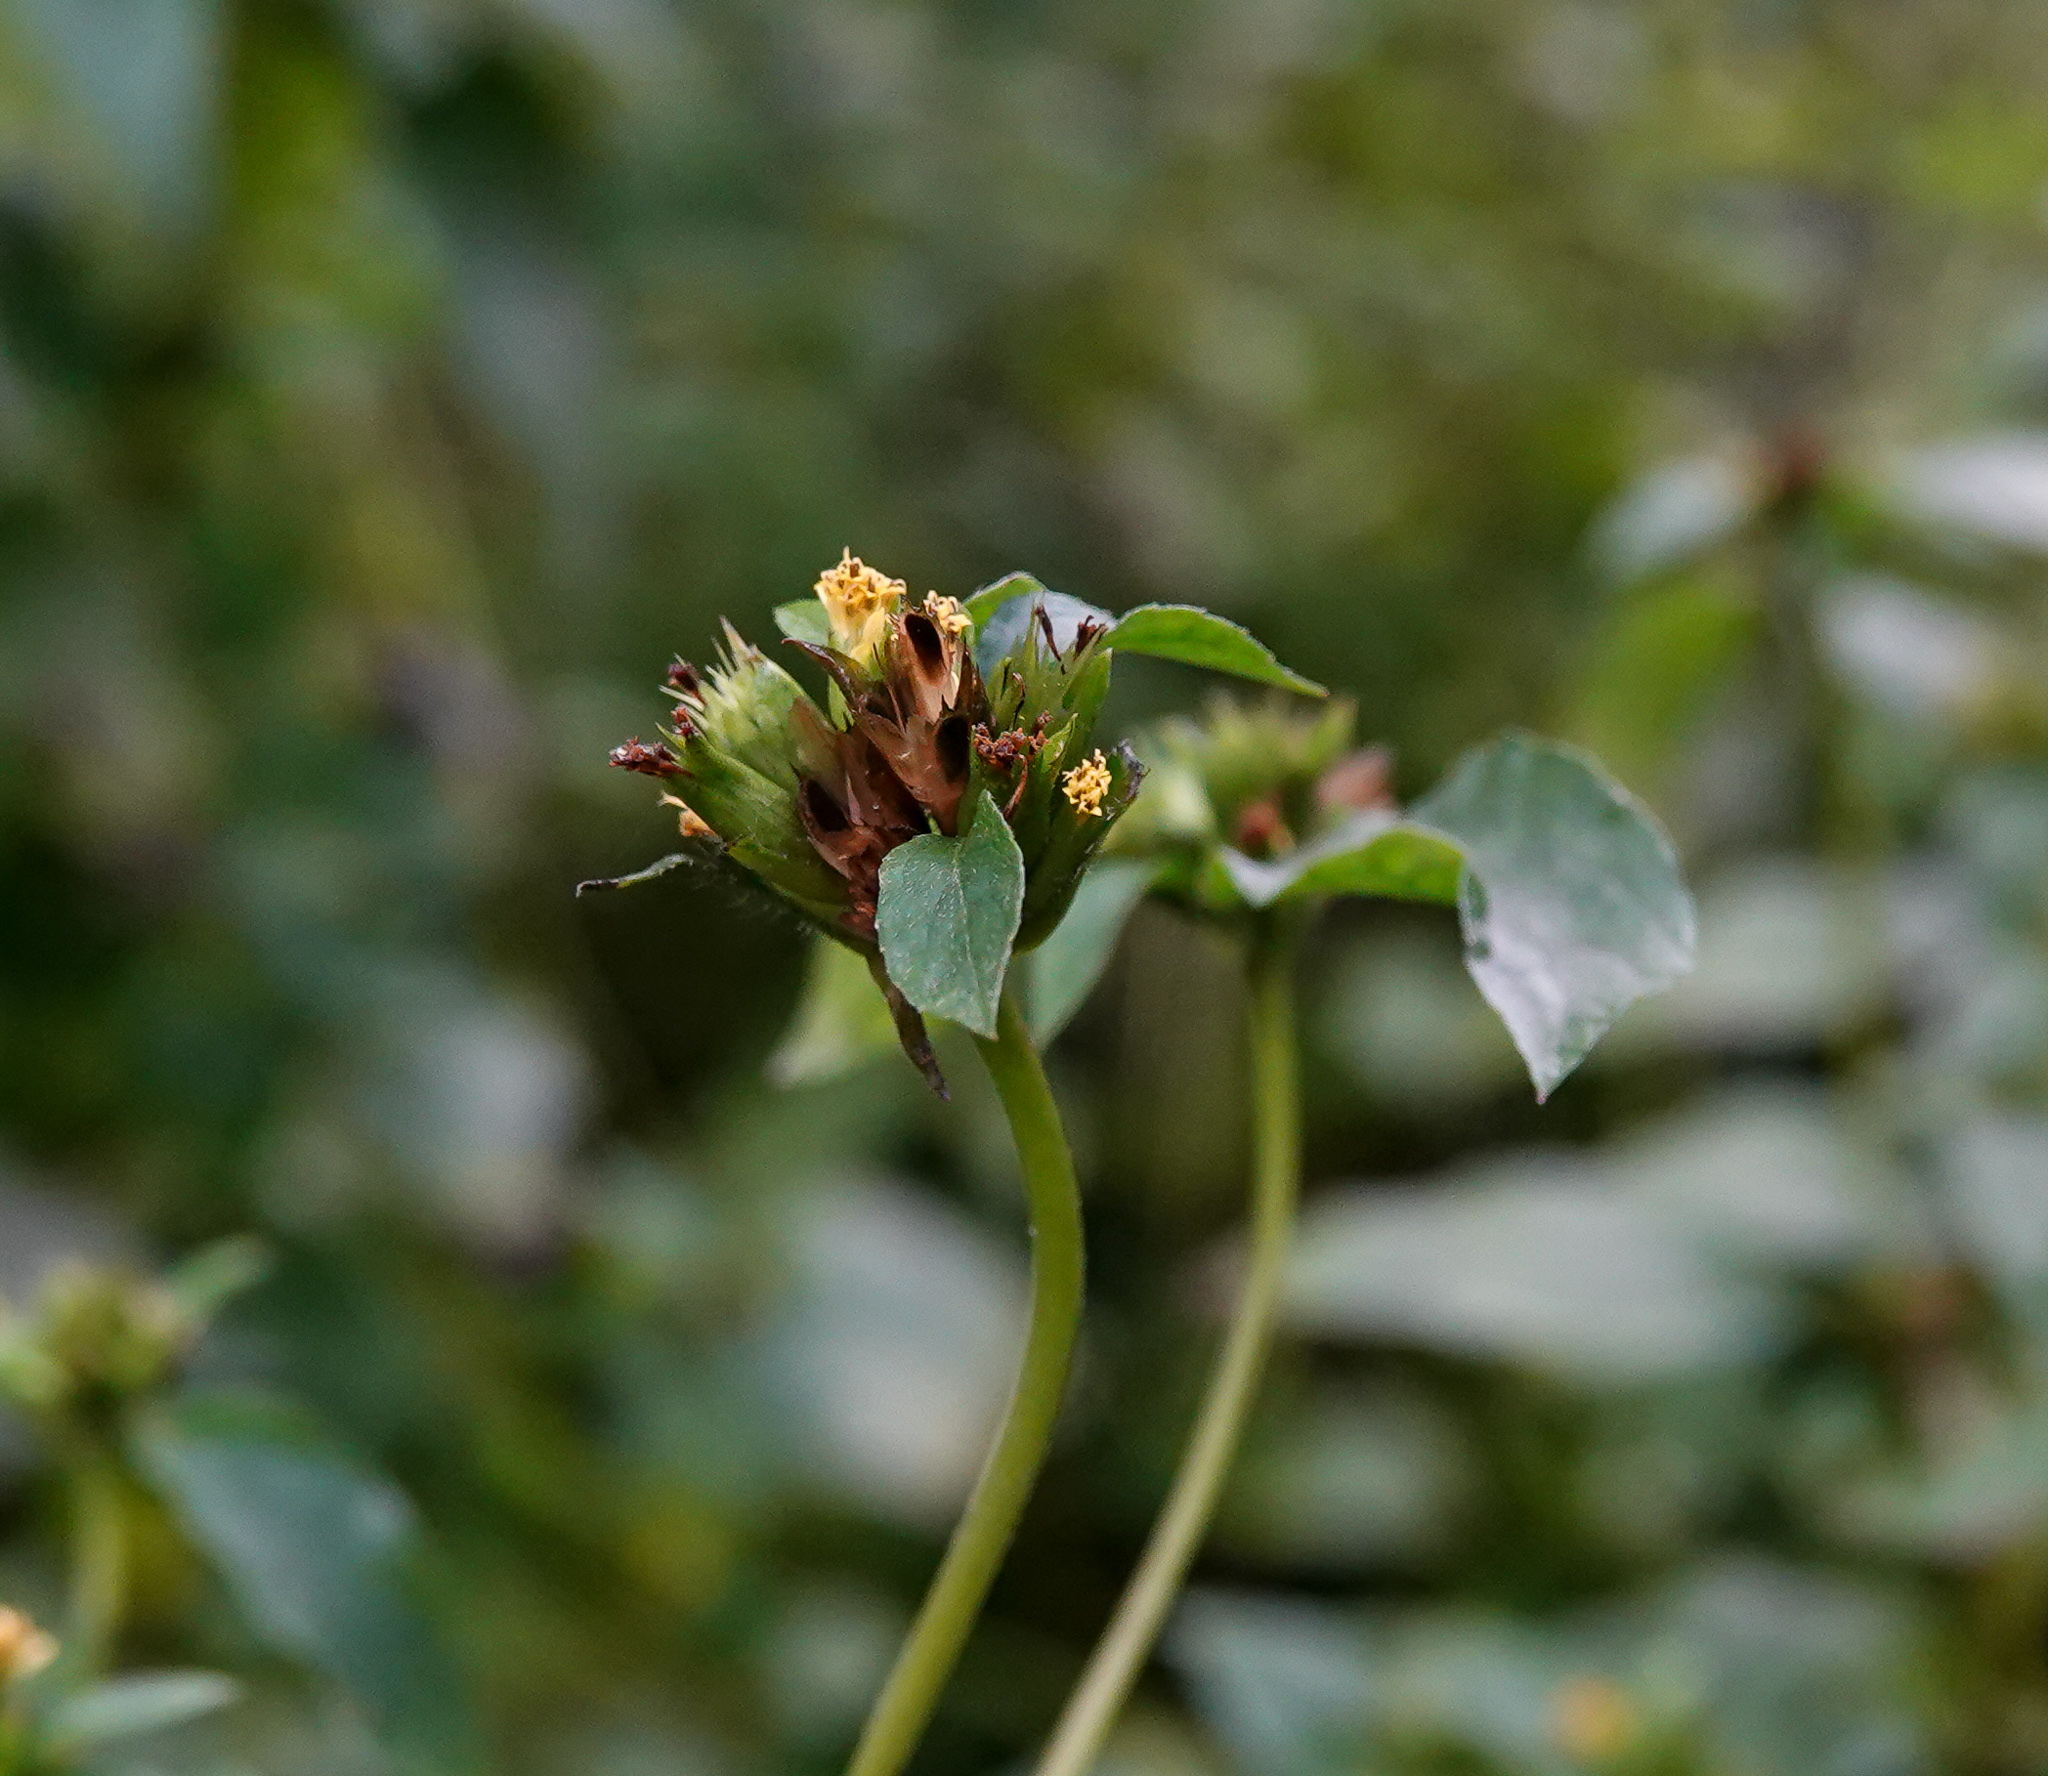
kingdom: Plantae
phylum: Tracheophyta
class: Magnoliopsida
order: Asterales
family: Asteraceae
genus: Synedrella
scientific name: Synedrella nodiflora
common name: Nodeweed
